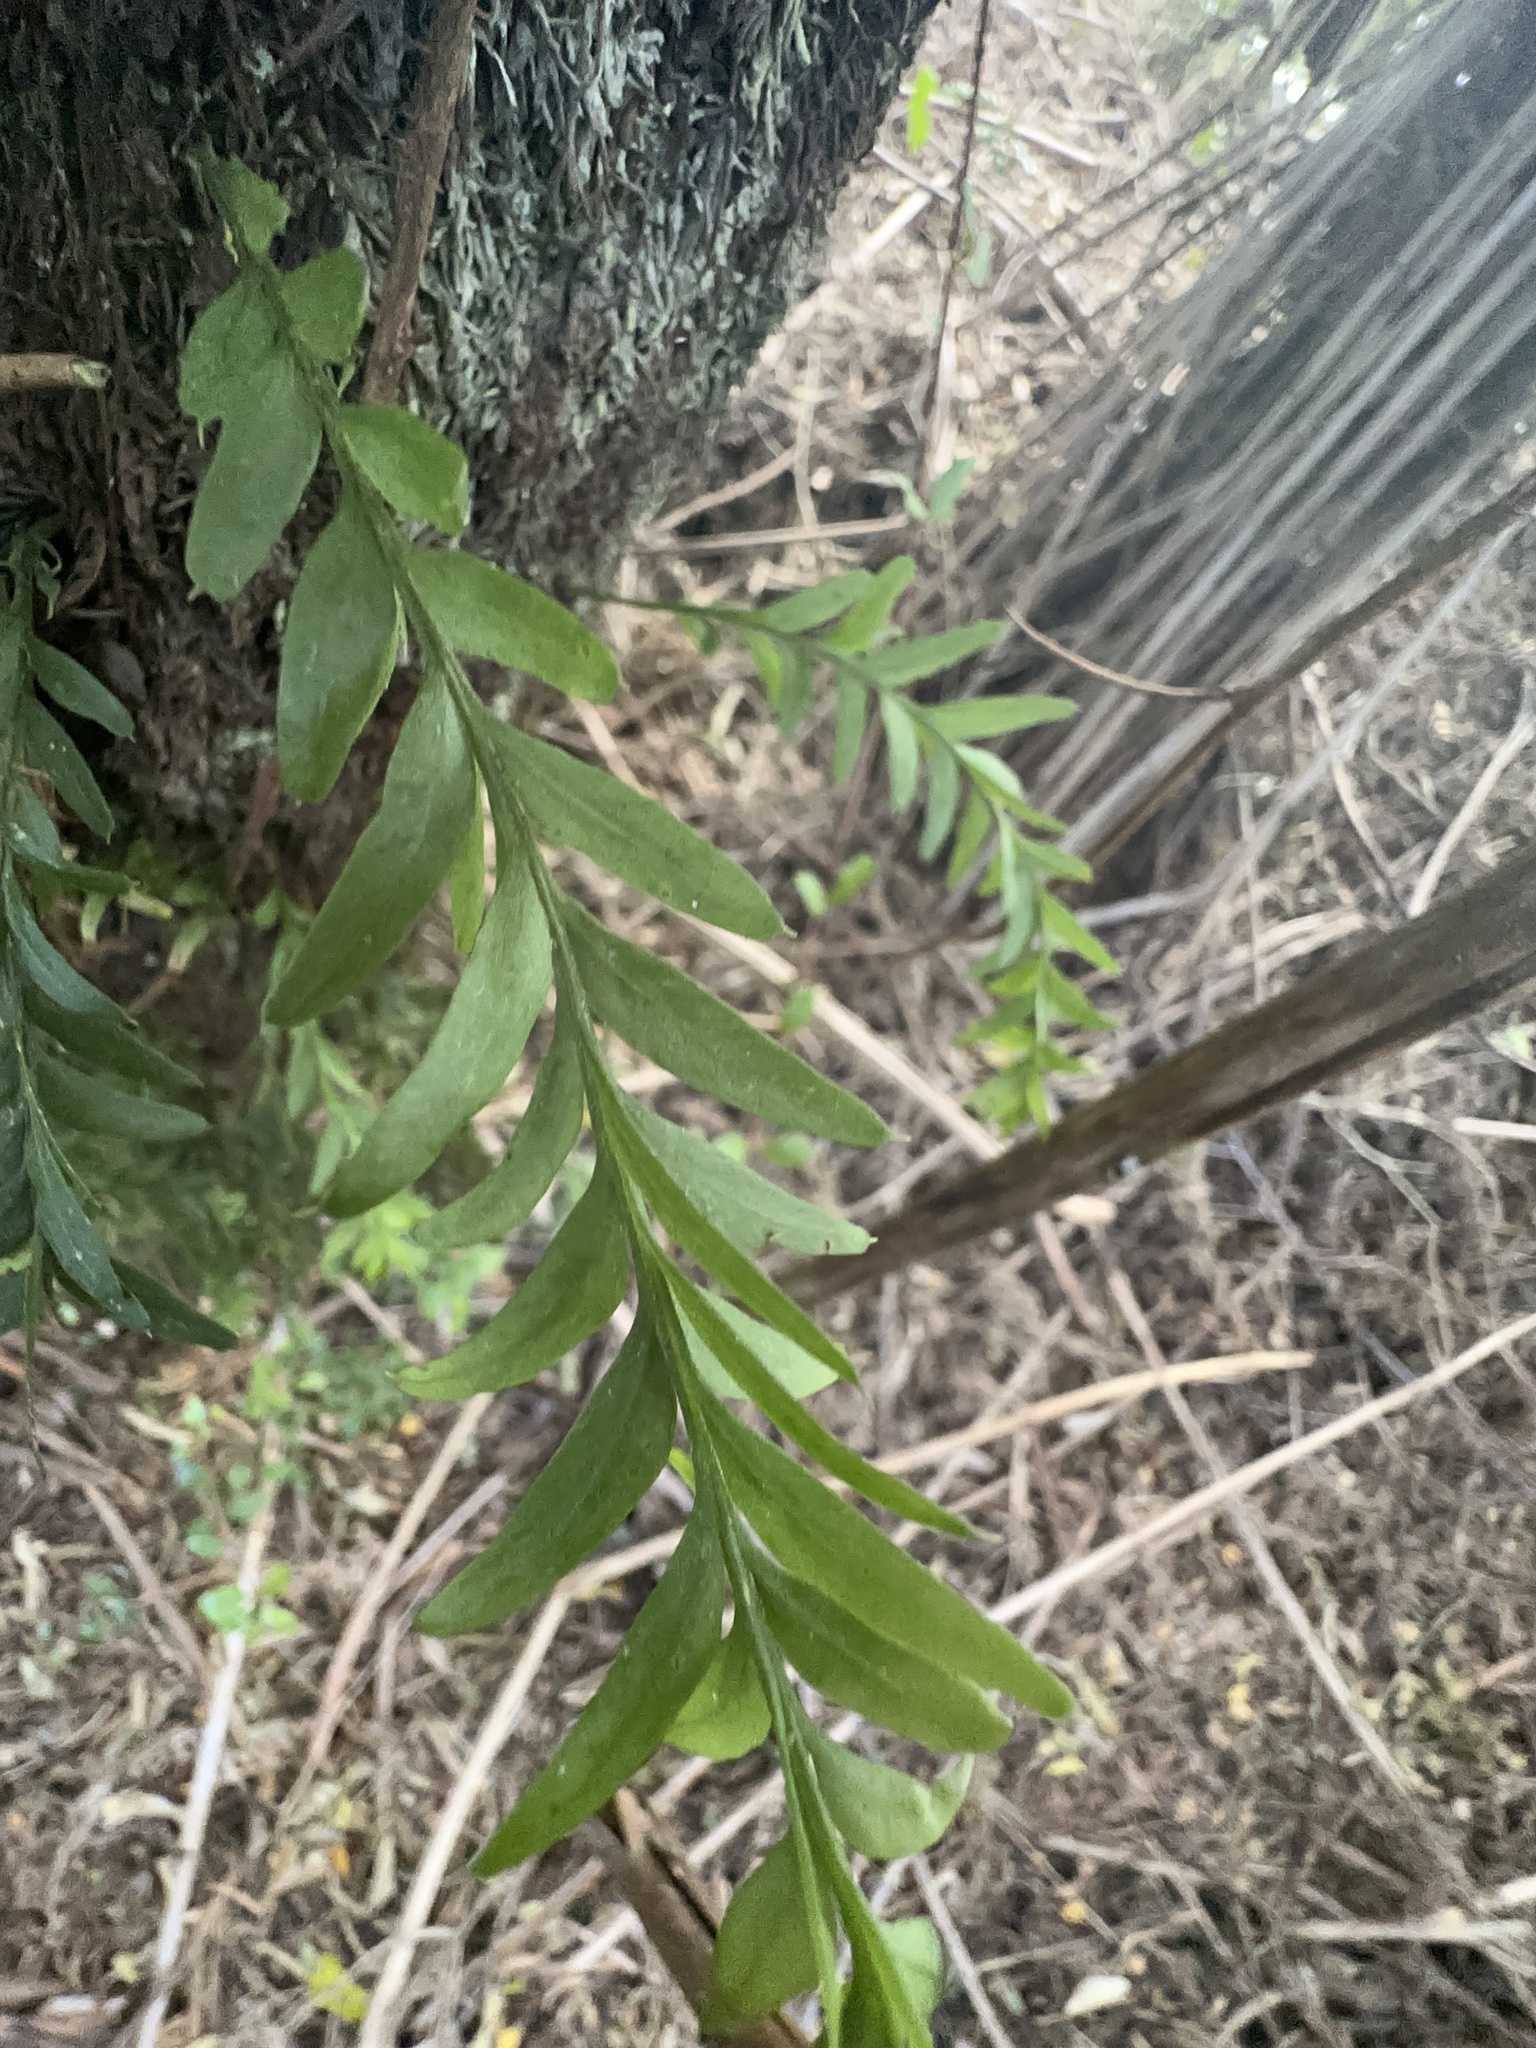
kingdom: Plantae
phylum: Tracheophyta
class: Polypodiopsida
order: Psilotales
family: Psilotaceae
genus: Tmesipteris
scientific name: Tmesipteris elongata
